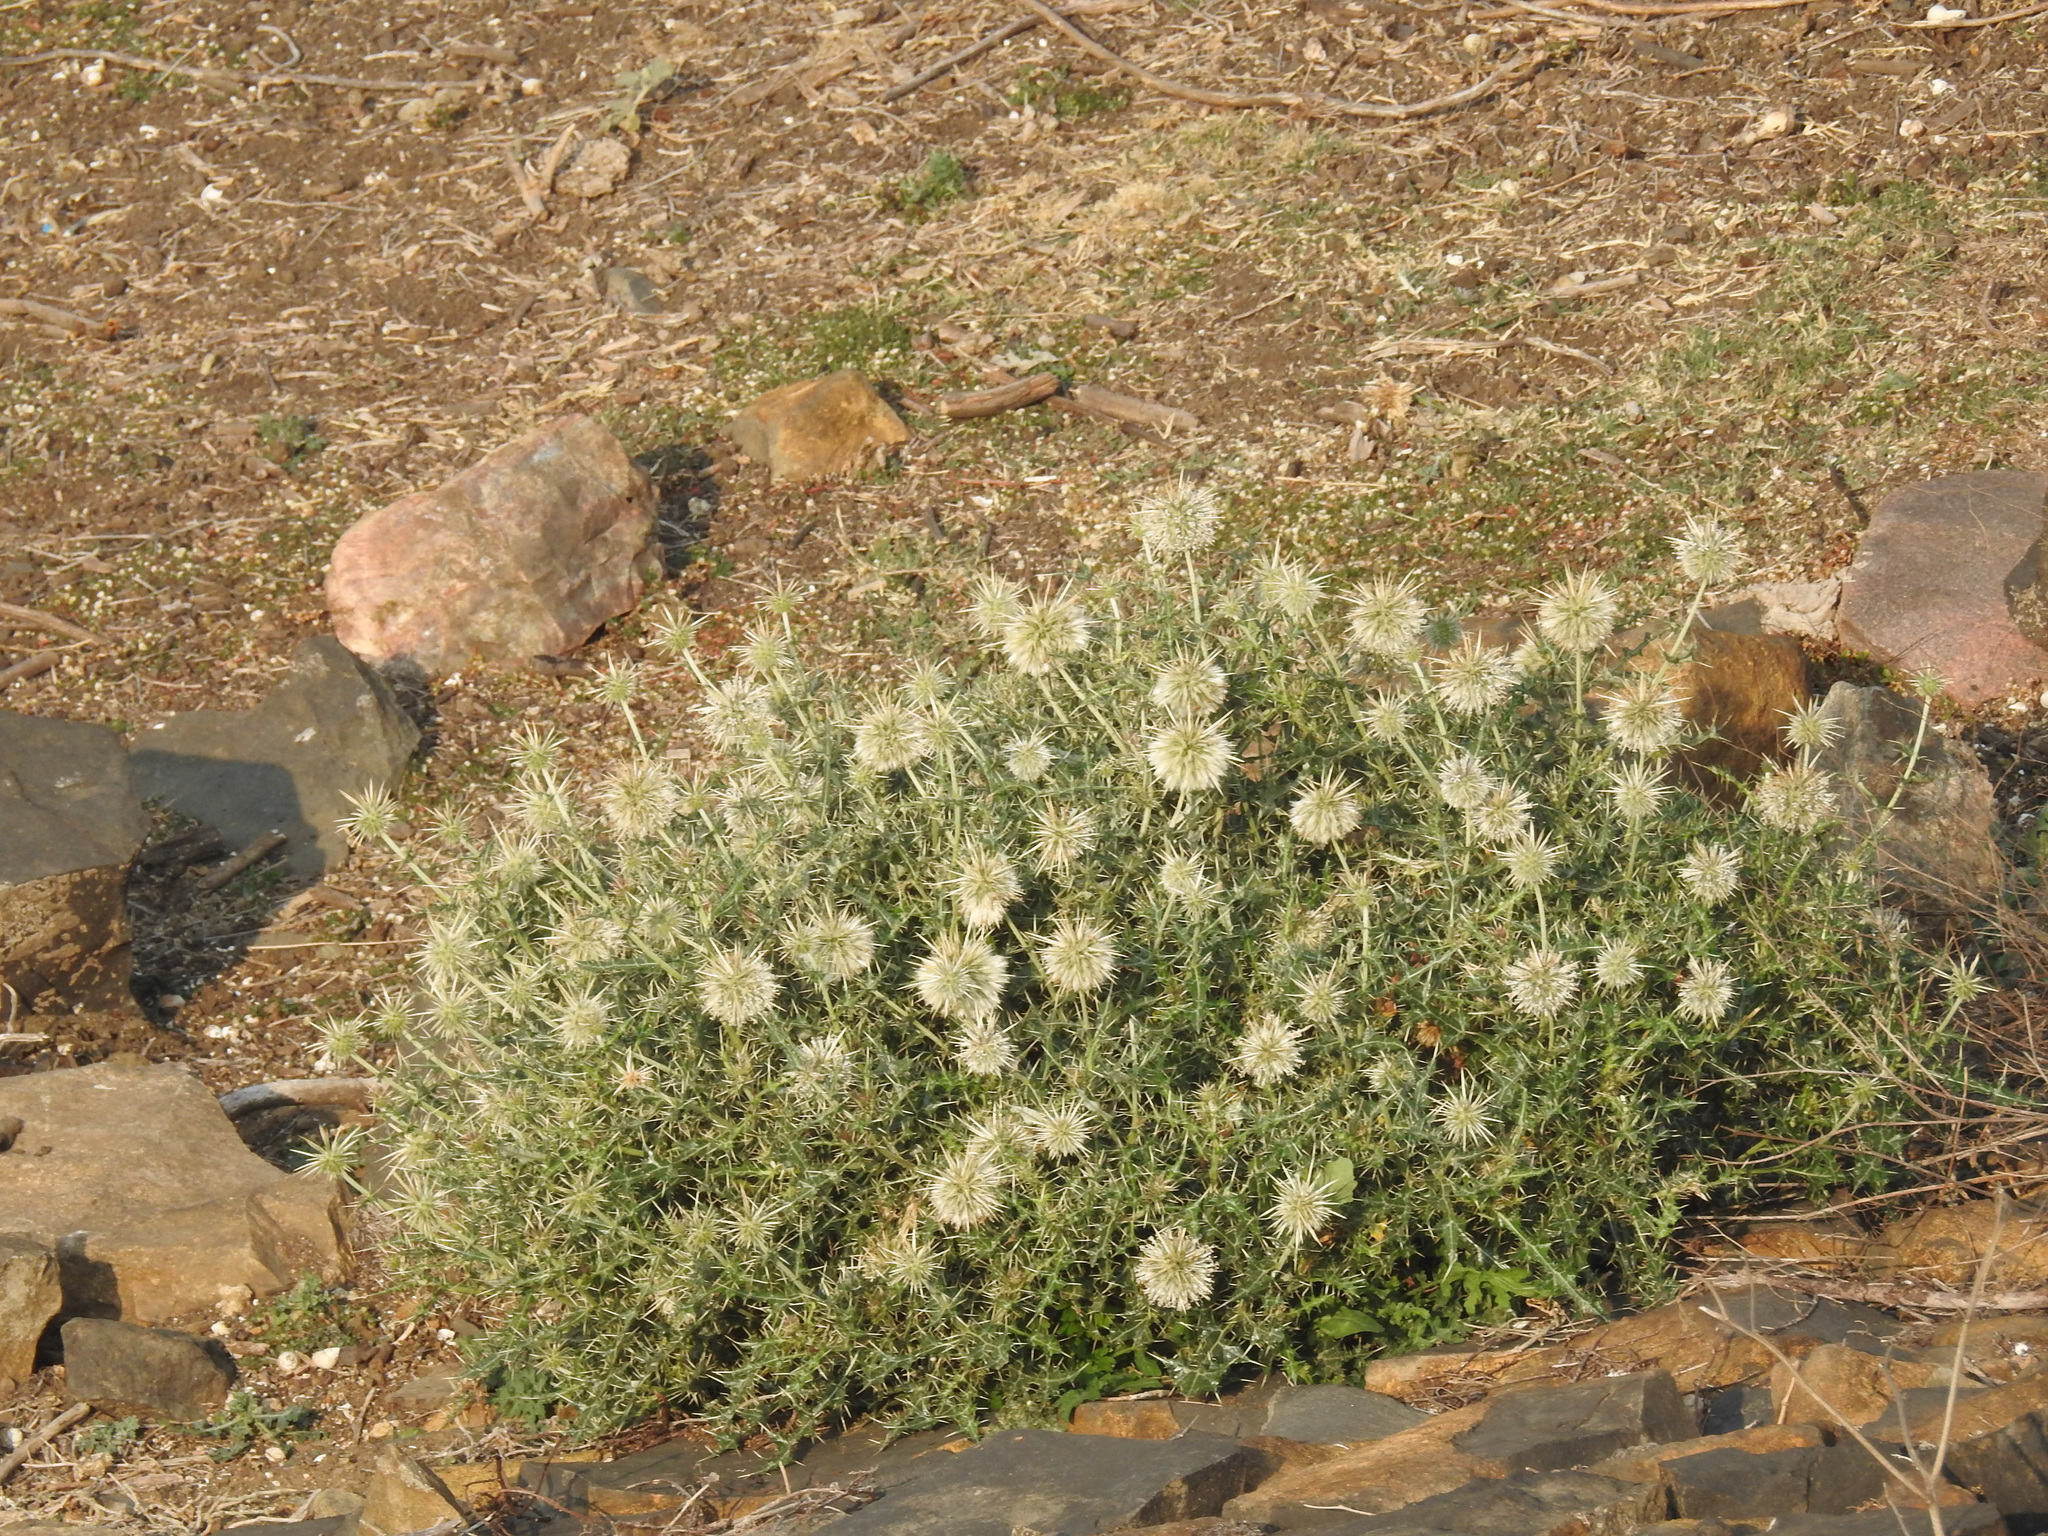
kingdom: Plantae
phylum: Tracheophyta
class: Magnoliopsida
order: Asterales
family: Asteraceae
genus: Echinops
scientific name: Echinops echinatus
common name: Indian globe thistle
